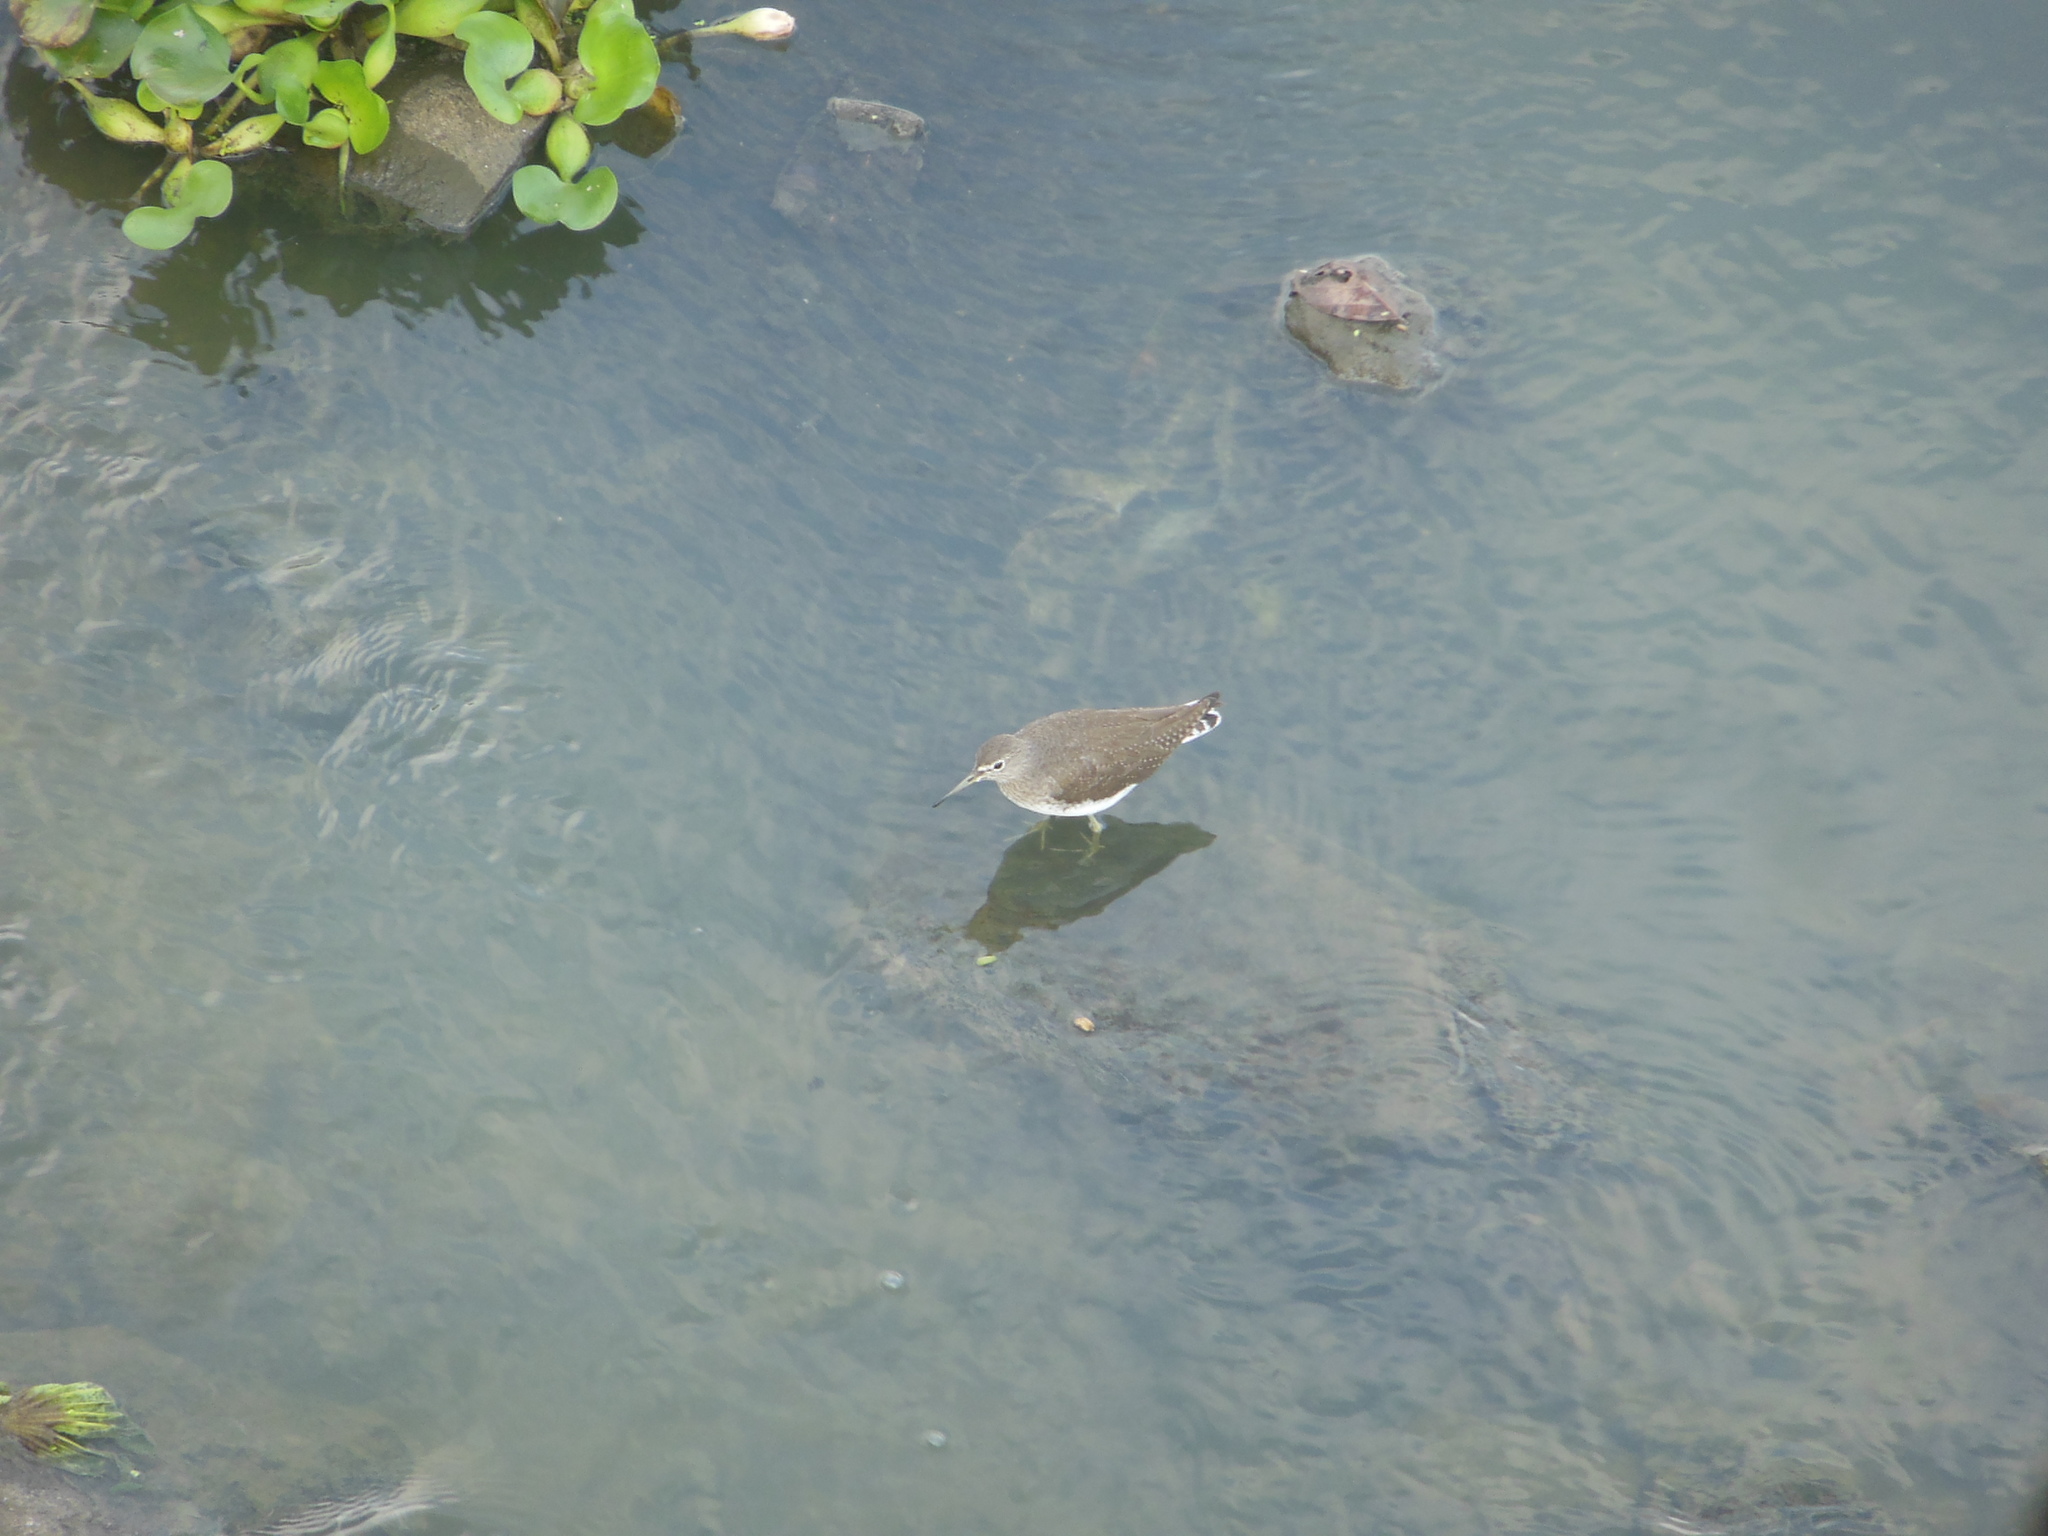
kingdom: Animalia
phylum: Chordata
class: Aves
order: Charadriiformes
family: Scolopacidae
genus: Tringa
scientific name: Tringa ochropus
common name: Green sandpiper
